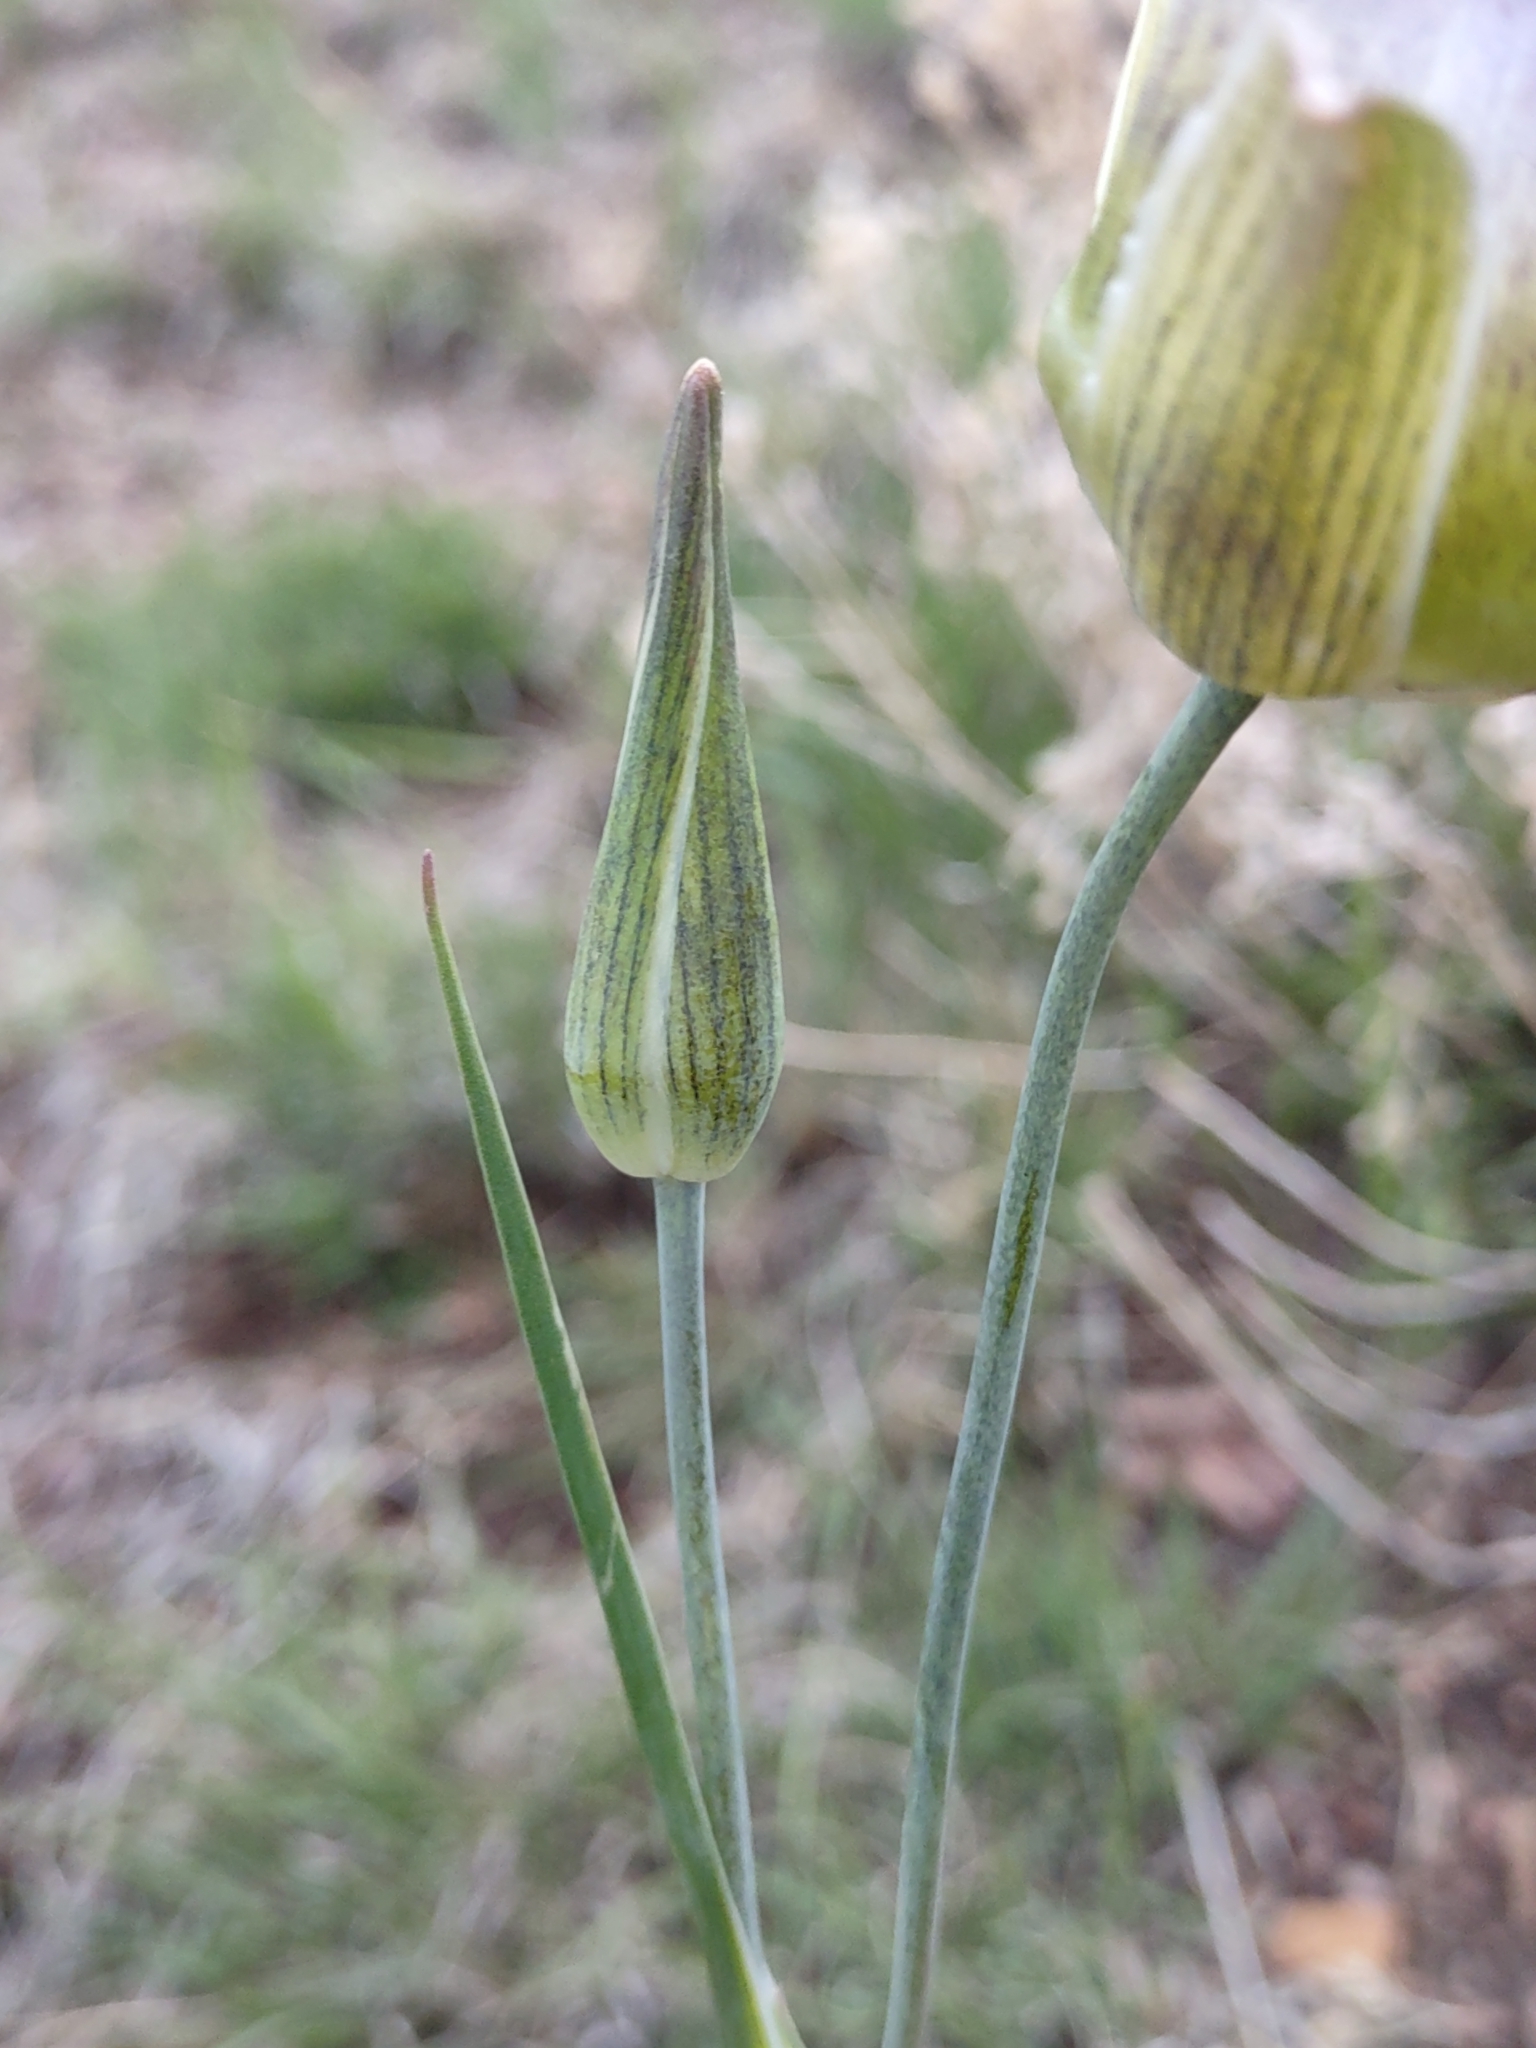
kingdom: Plantae
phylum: Tracheophyta
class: Liliopsida
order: Liliales
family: Liliaceae
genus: Calochortus
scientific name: Calochortus gunnisonii
